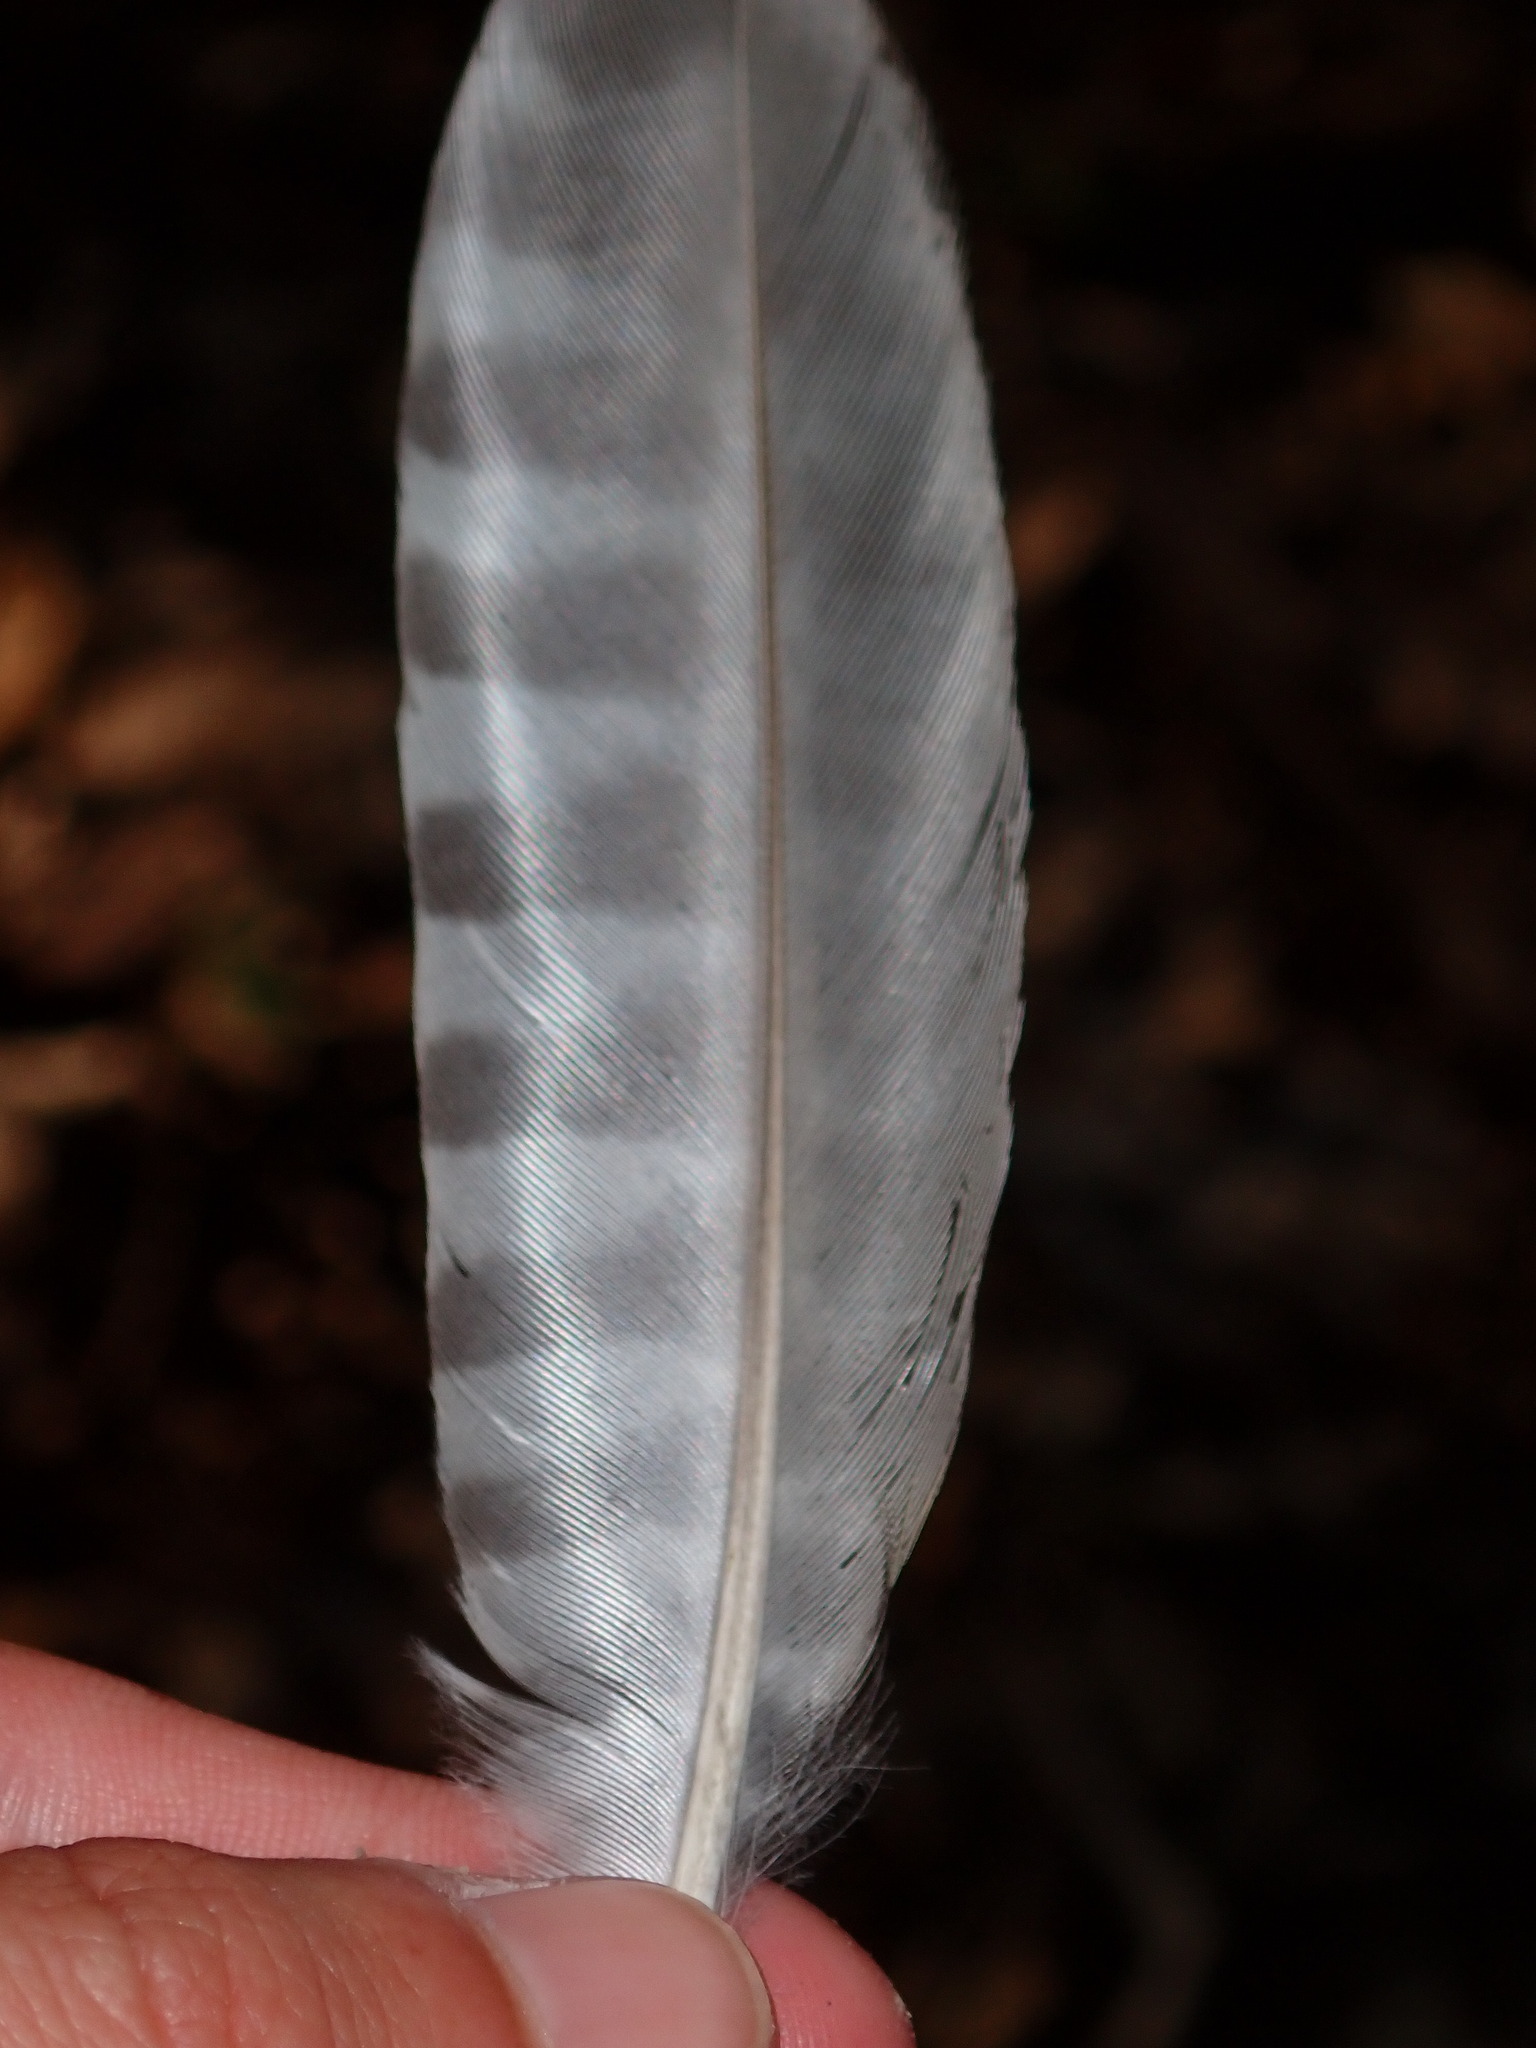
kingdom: Animalia
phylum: Chordata
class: Aves
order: Piciformes
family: Picidae
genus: Picus
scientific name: Picus viridis
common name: European green woodpecker
